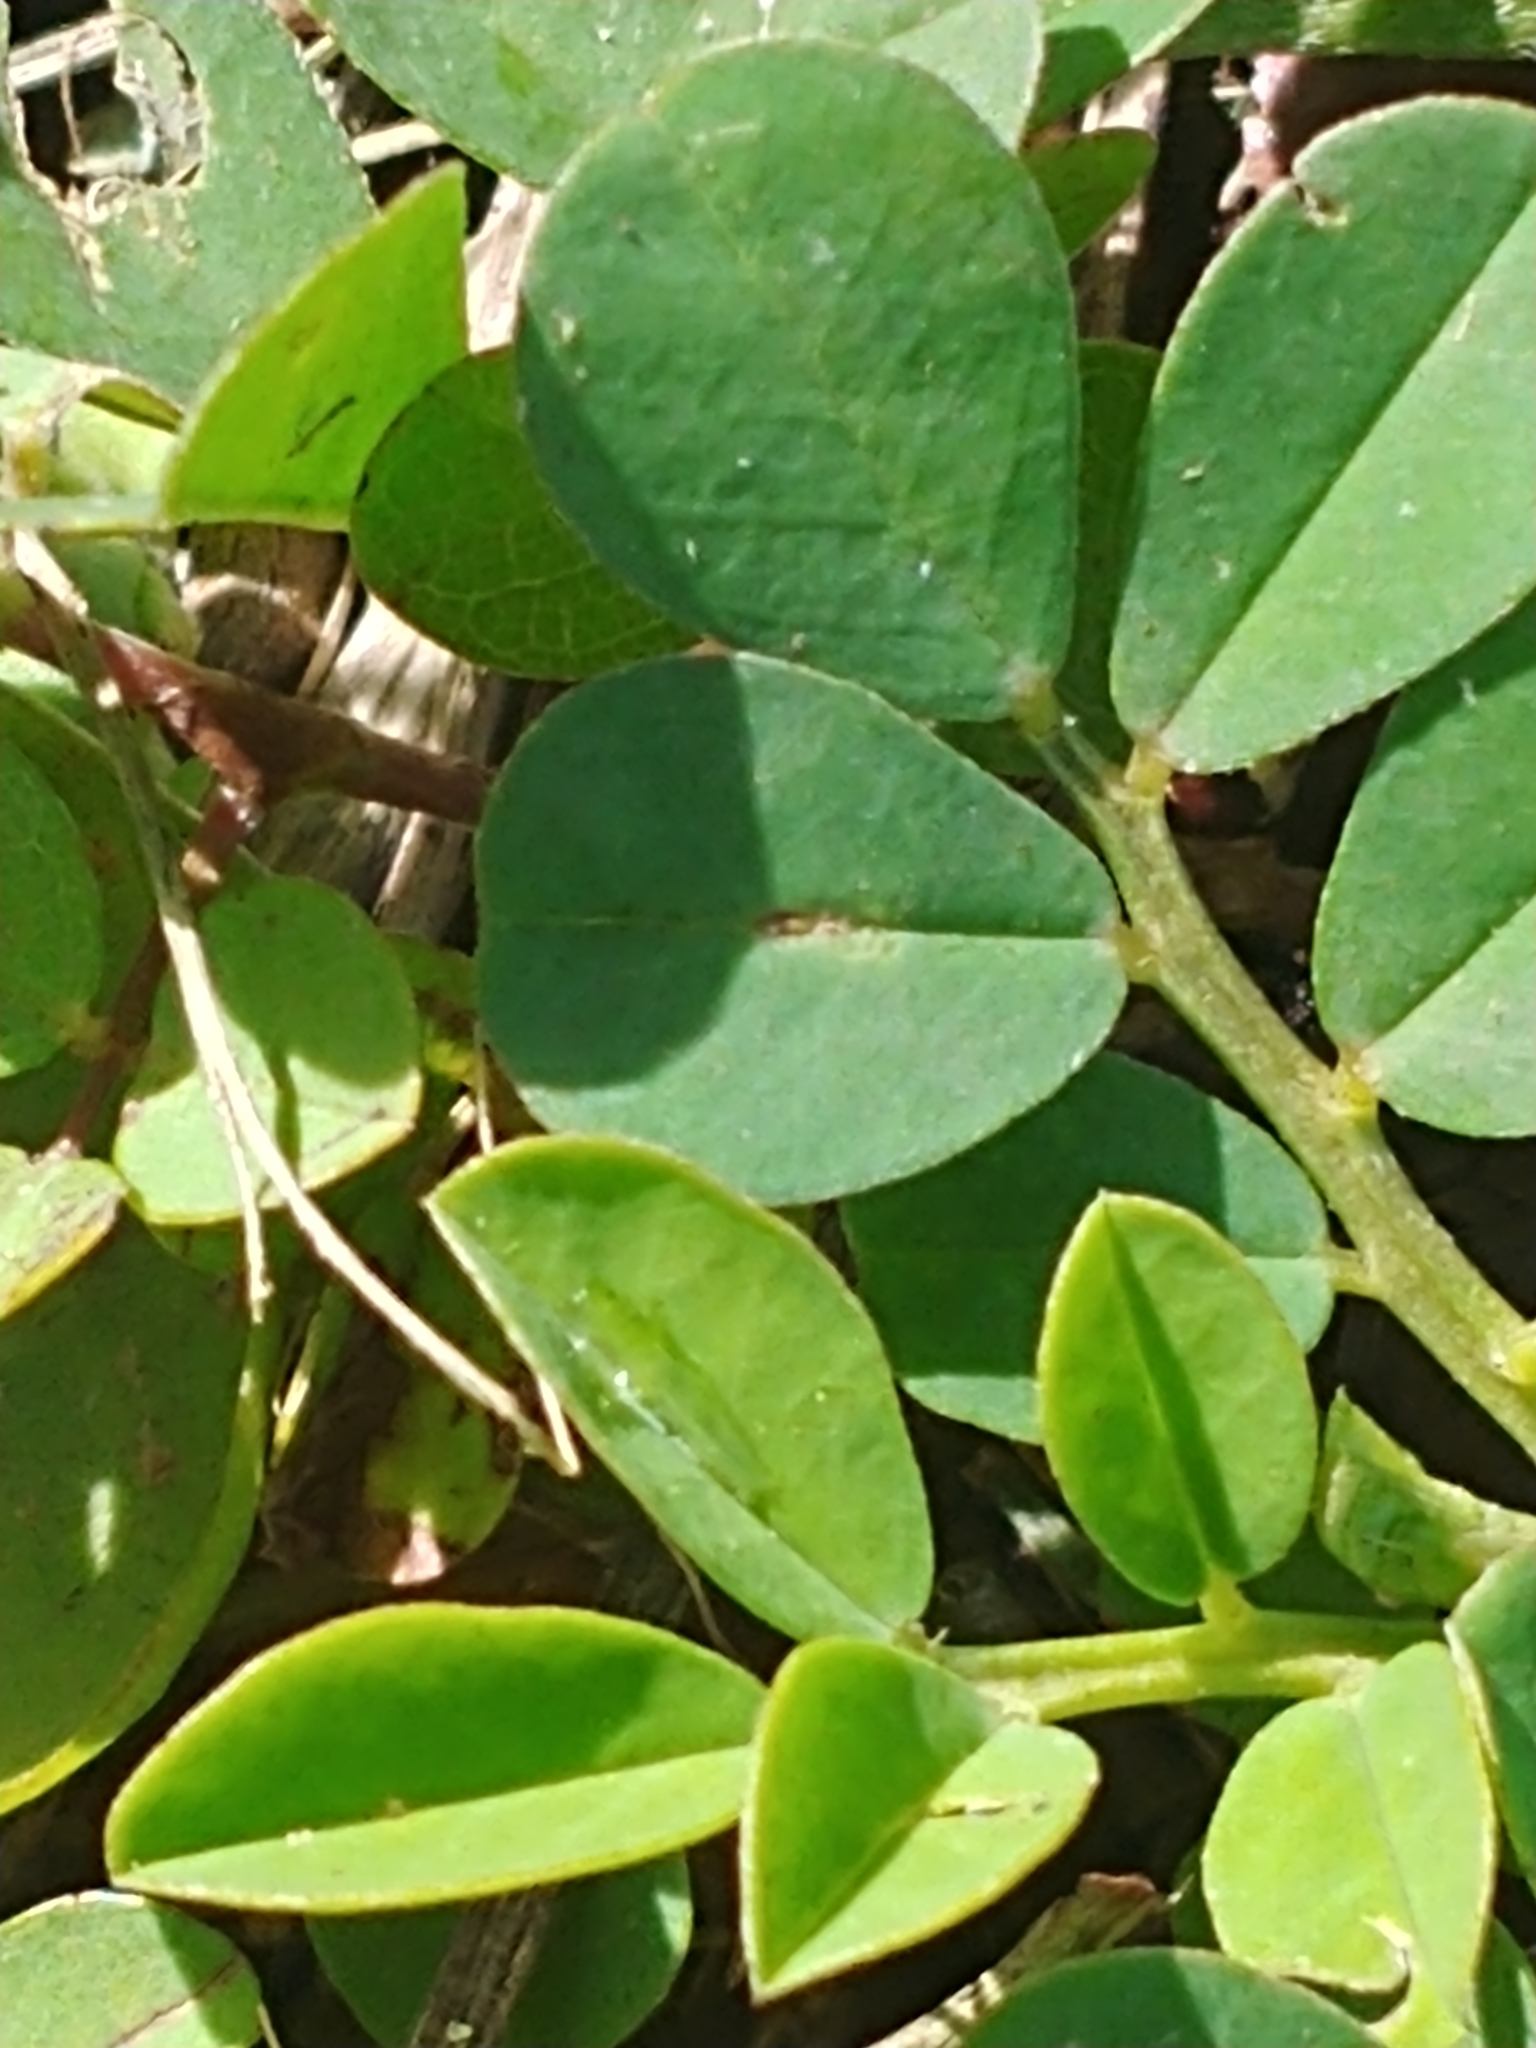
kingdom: Plantae
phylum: Tracheophyta
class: Magnoliopsida
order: Fabales
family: Fabaceae
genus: Indigofera
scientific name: Indigofera spicata
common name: Creeping indigo
